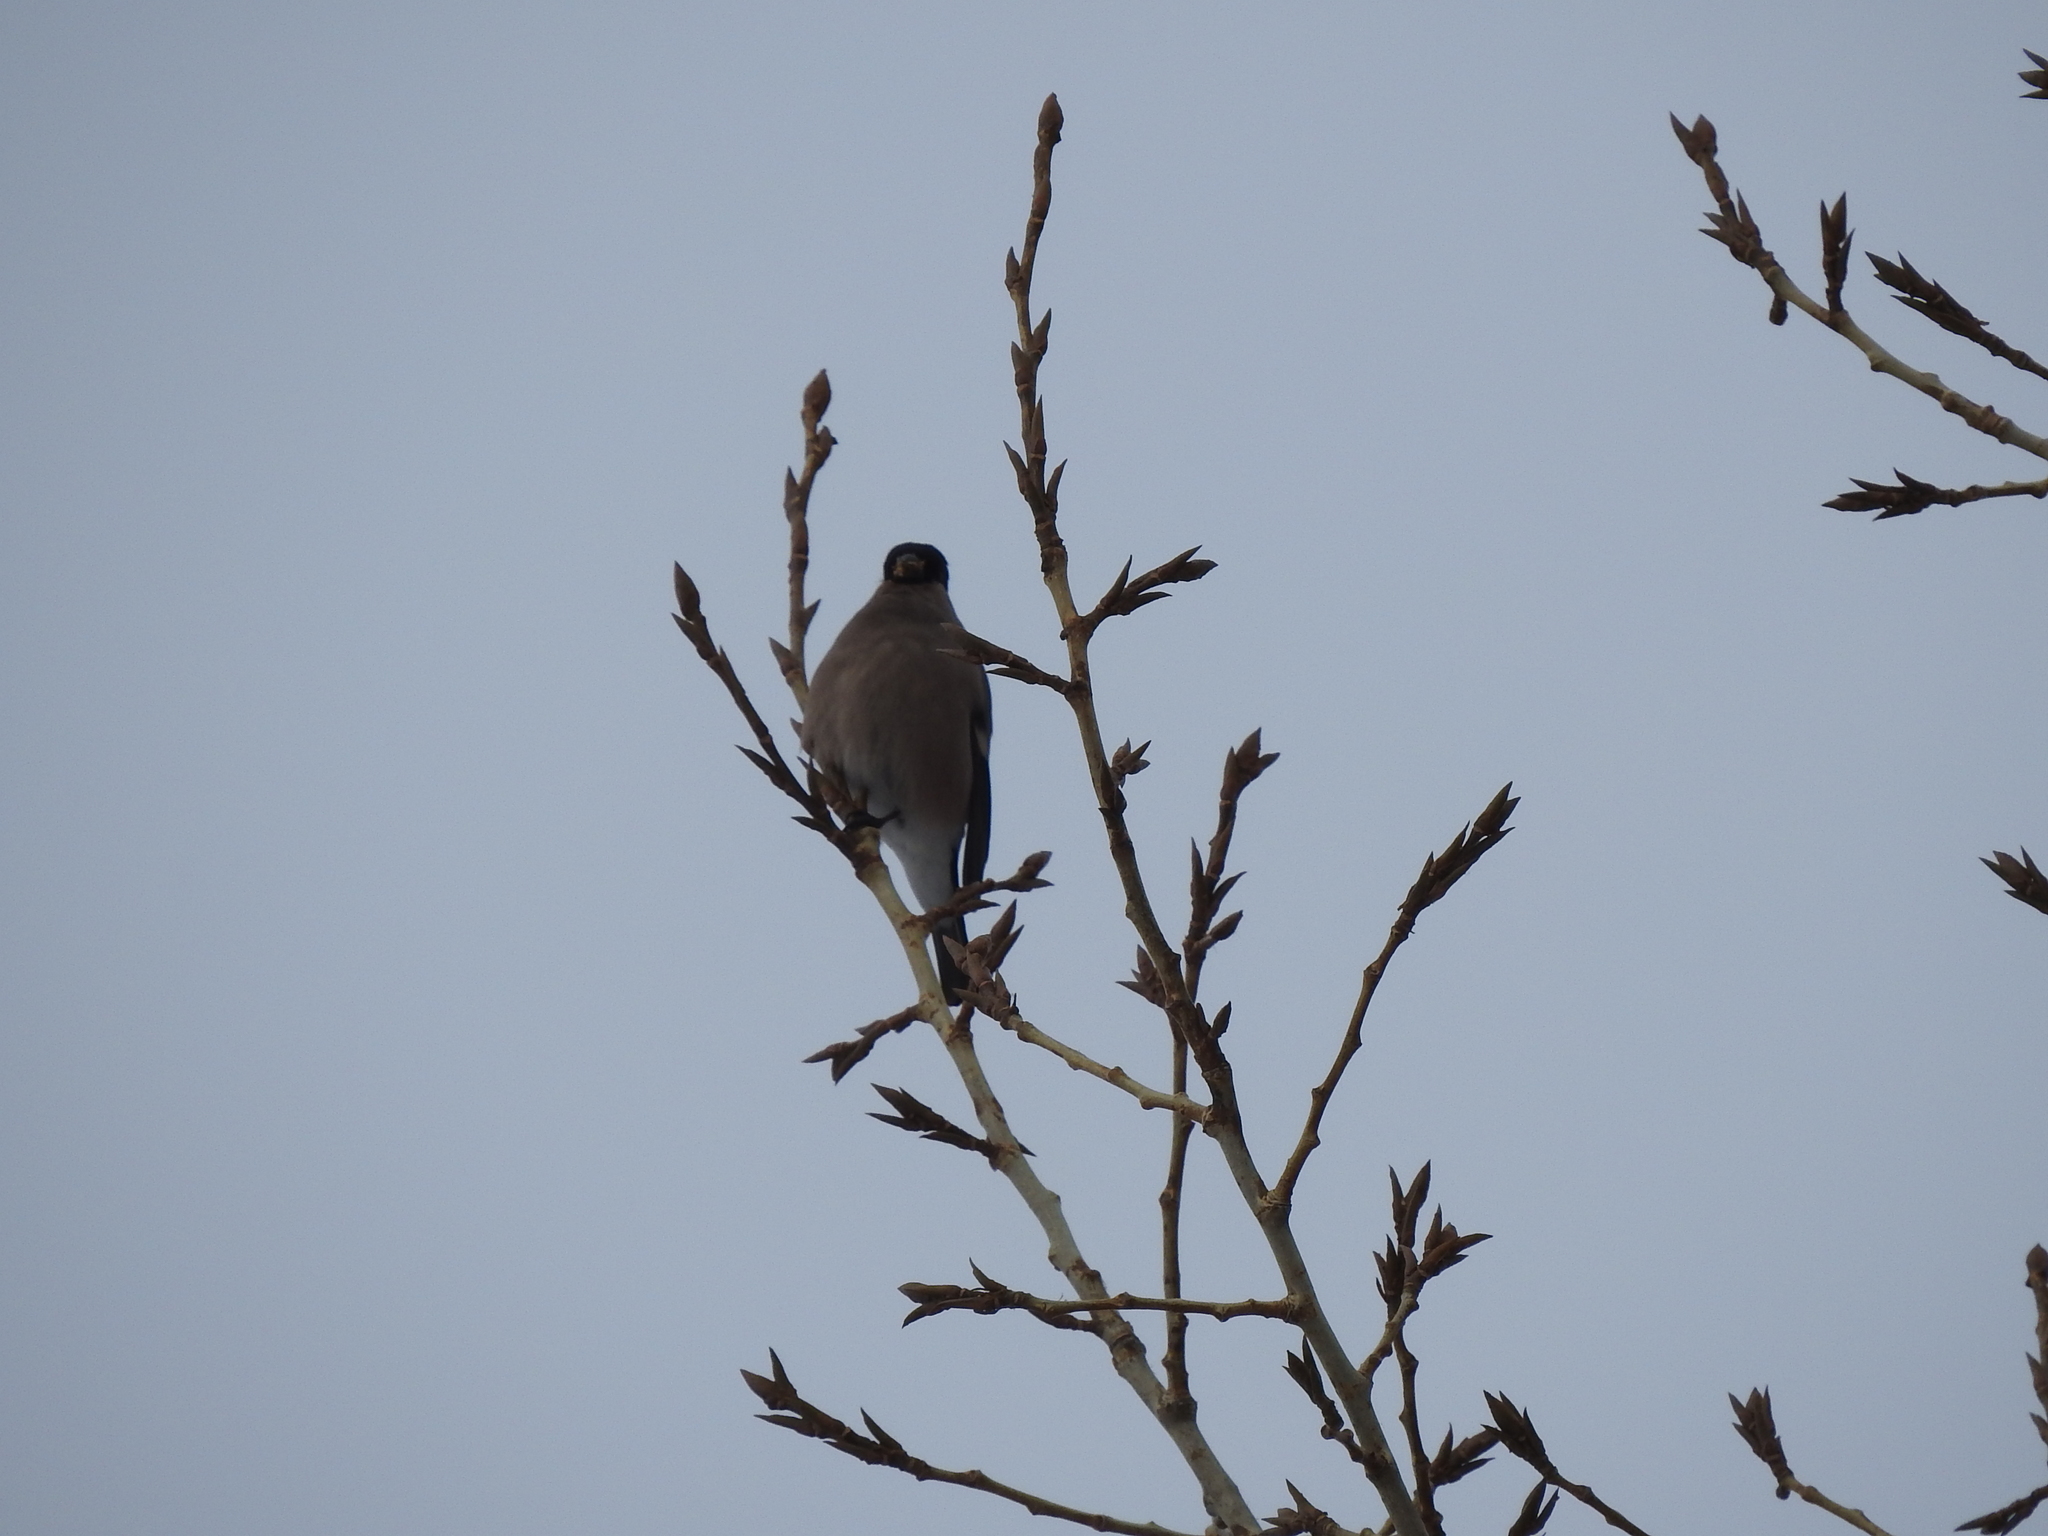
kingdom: Animalia
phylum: Chordata
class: Aves
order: Passeriformes
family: Fringillidae
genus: Pyrrhula
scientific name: Pyrrhula pyrrhula
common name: Eurasian bullfinch
